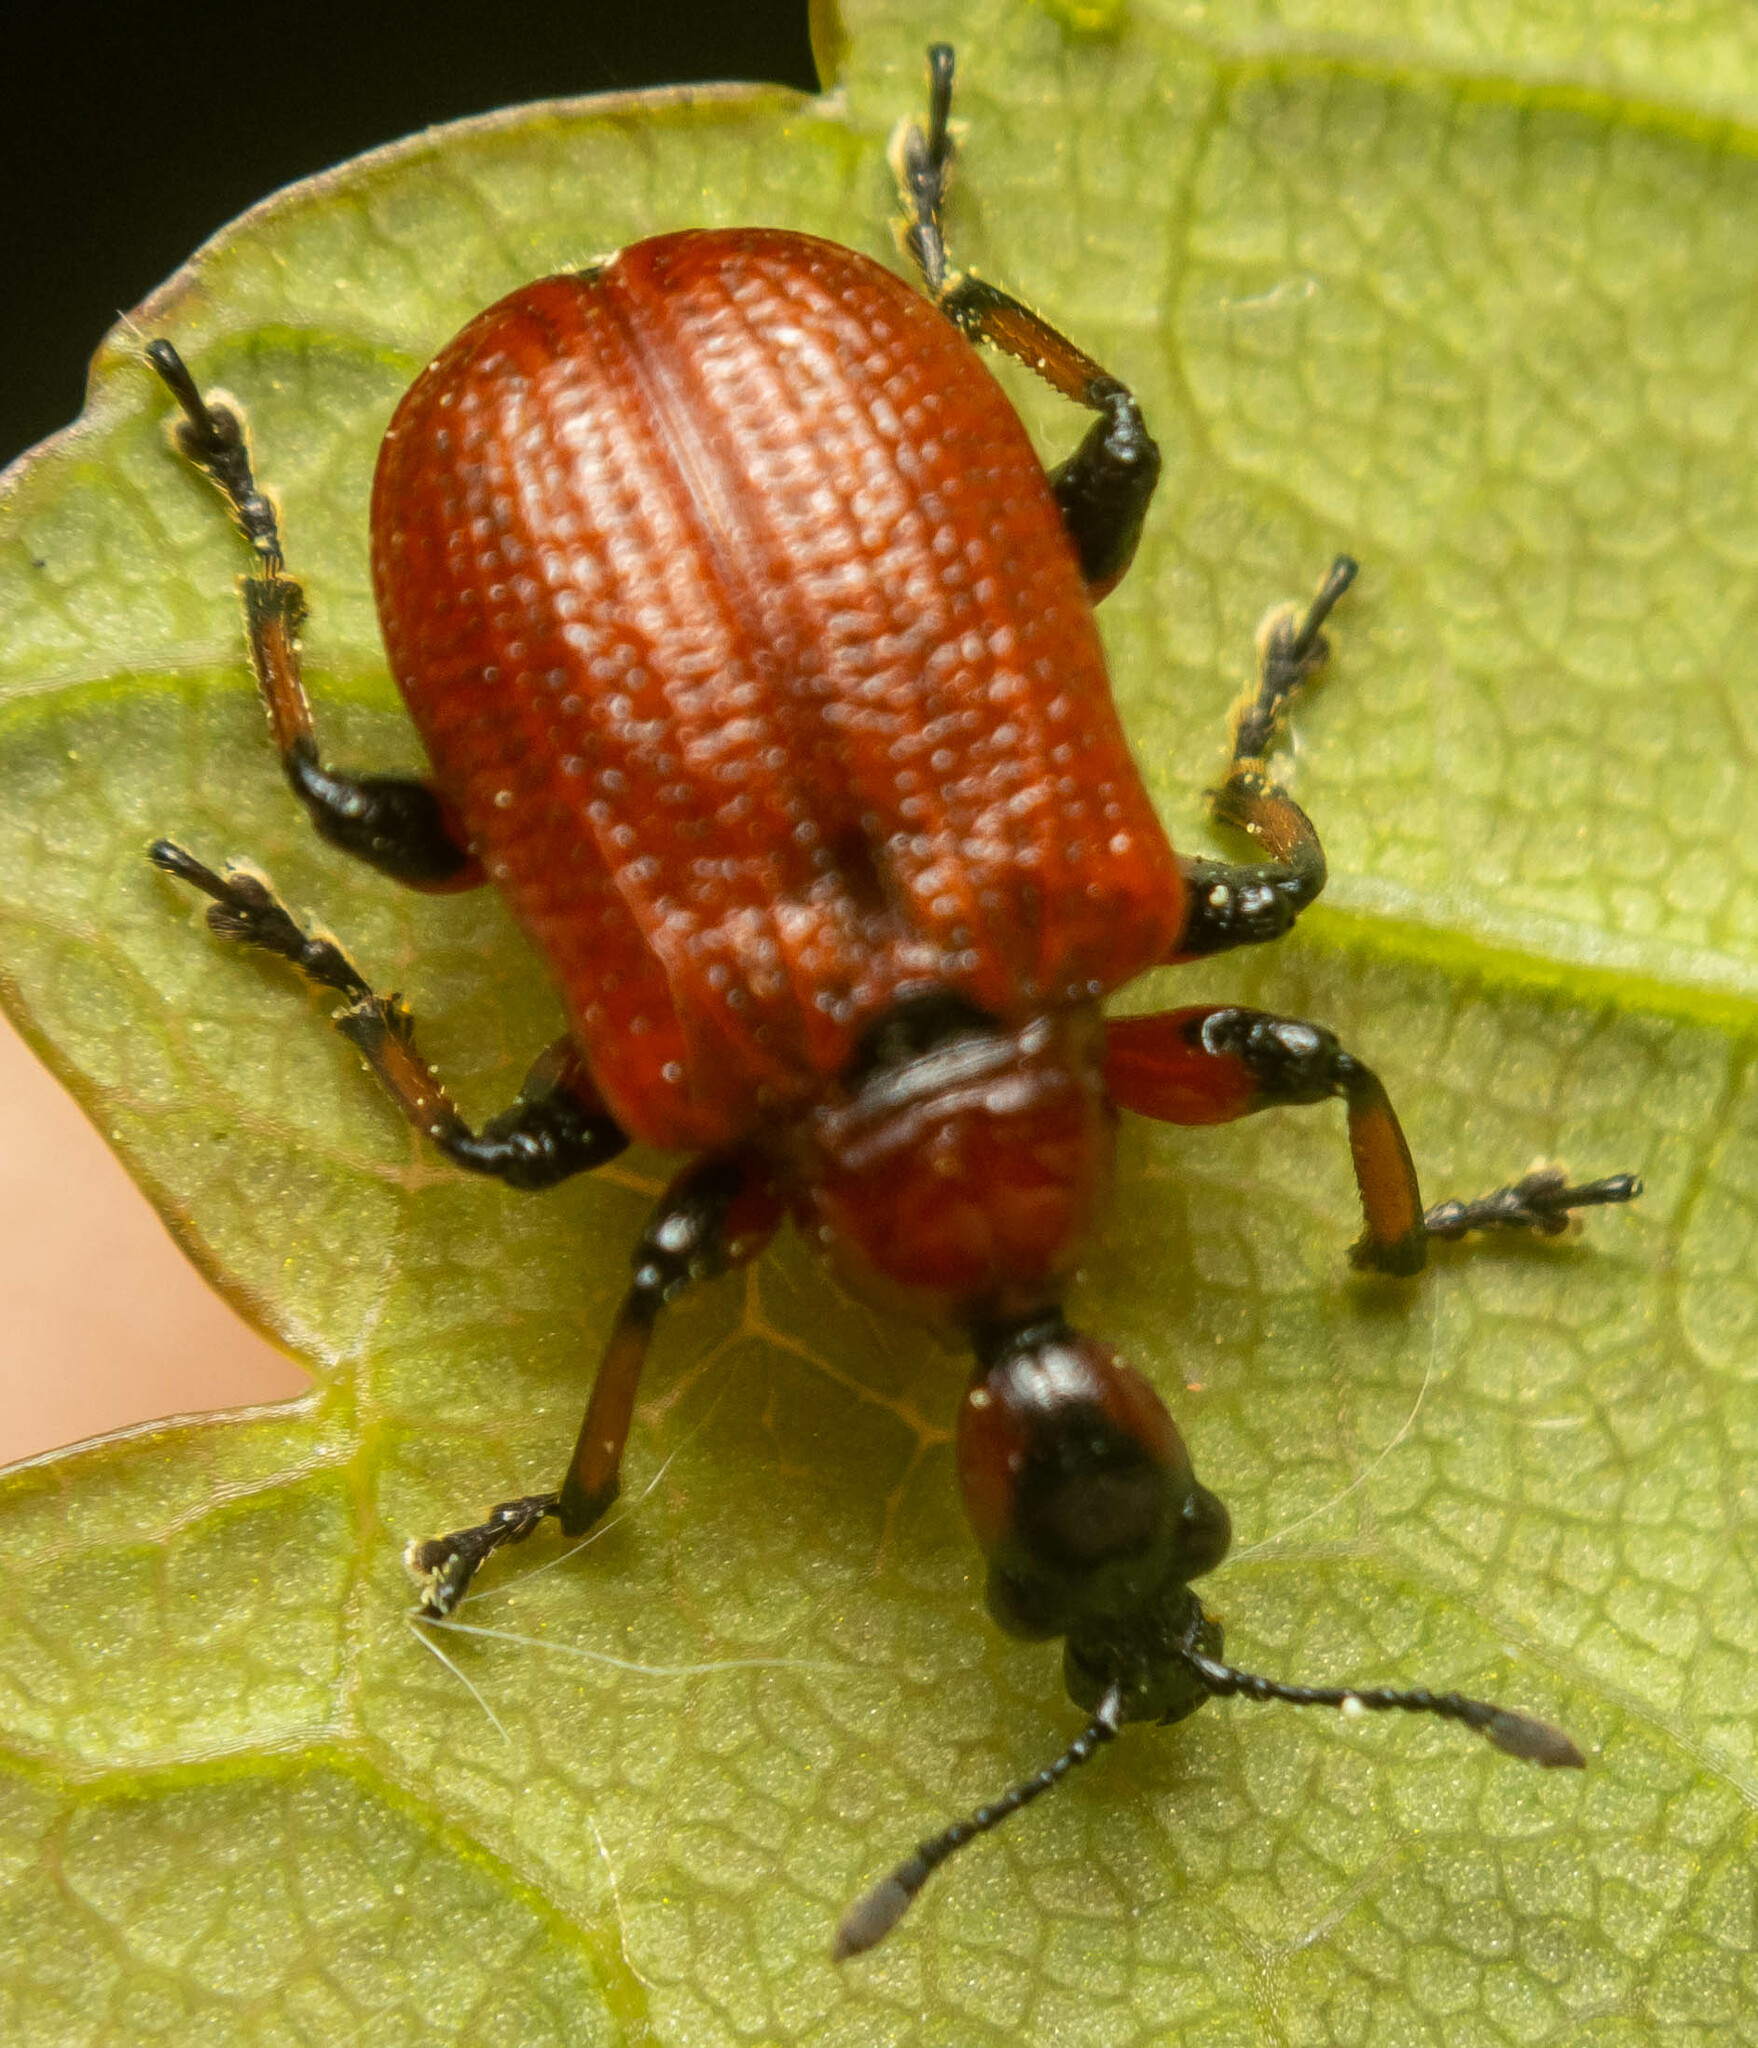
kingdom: Animalia
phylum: Arthropoda
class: Insecta
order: Coleoptera
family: Attelabidae
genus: Apoderus
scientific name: Apoderus coryli
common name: Hazel leaf roller
